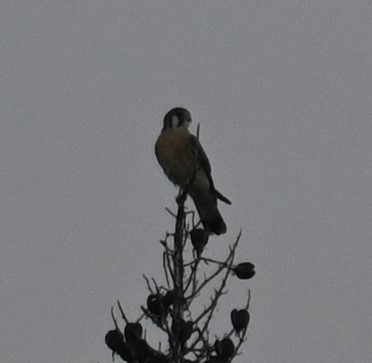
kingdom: Animalia
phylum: Chordata
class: Aves
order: Falconiformes
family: Falconidae
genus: Falco
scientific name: Falco sparverius
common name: American kestrel
